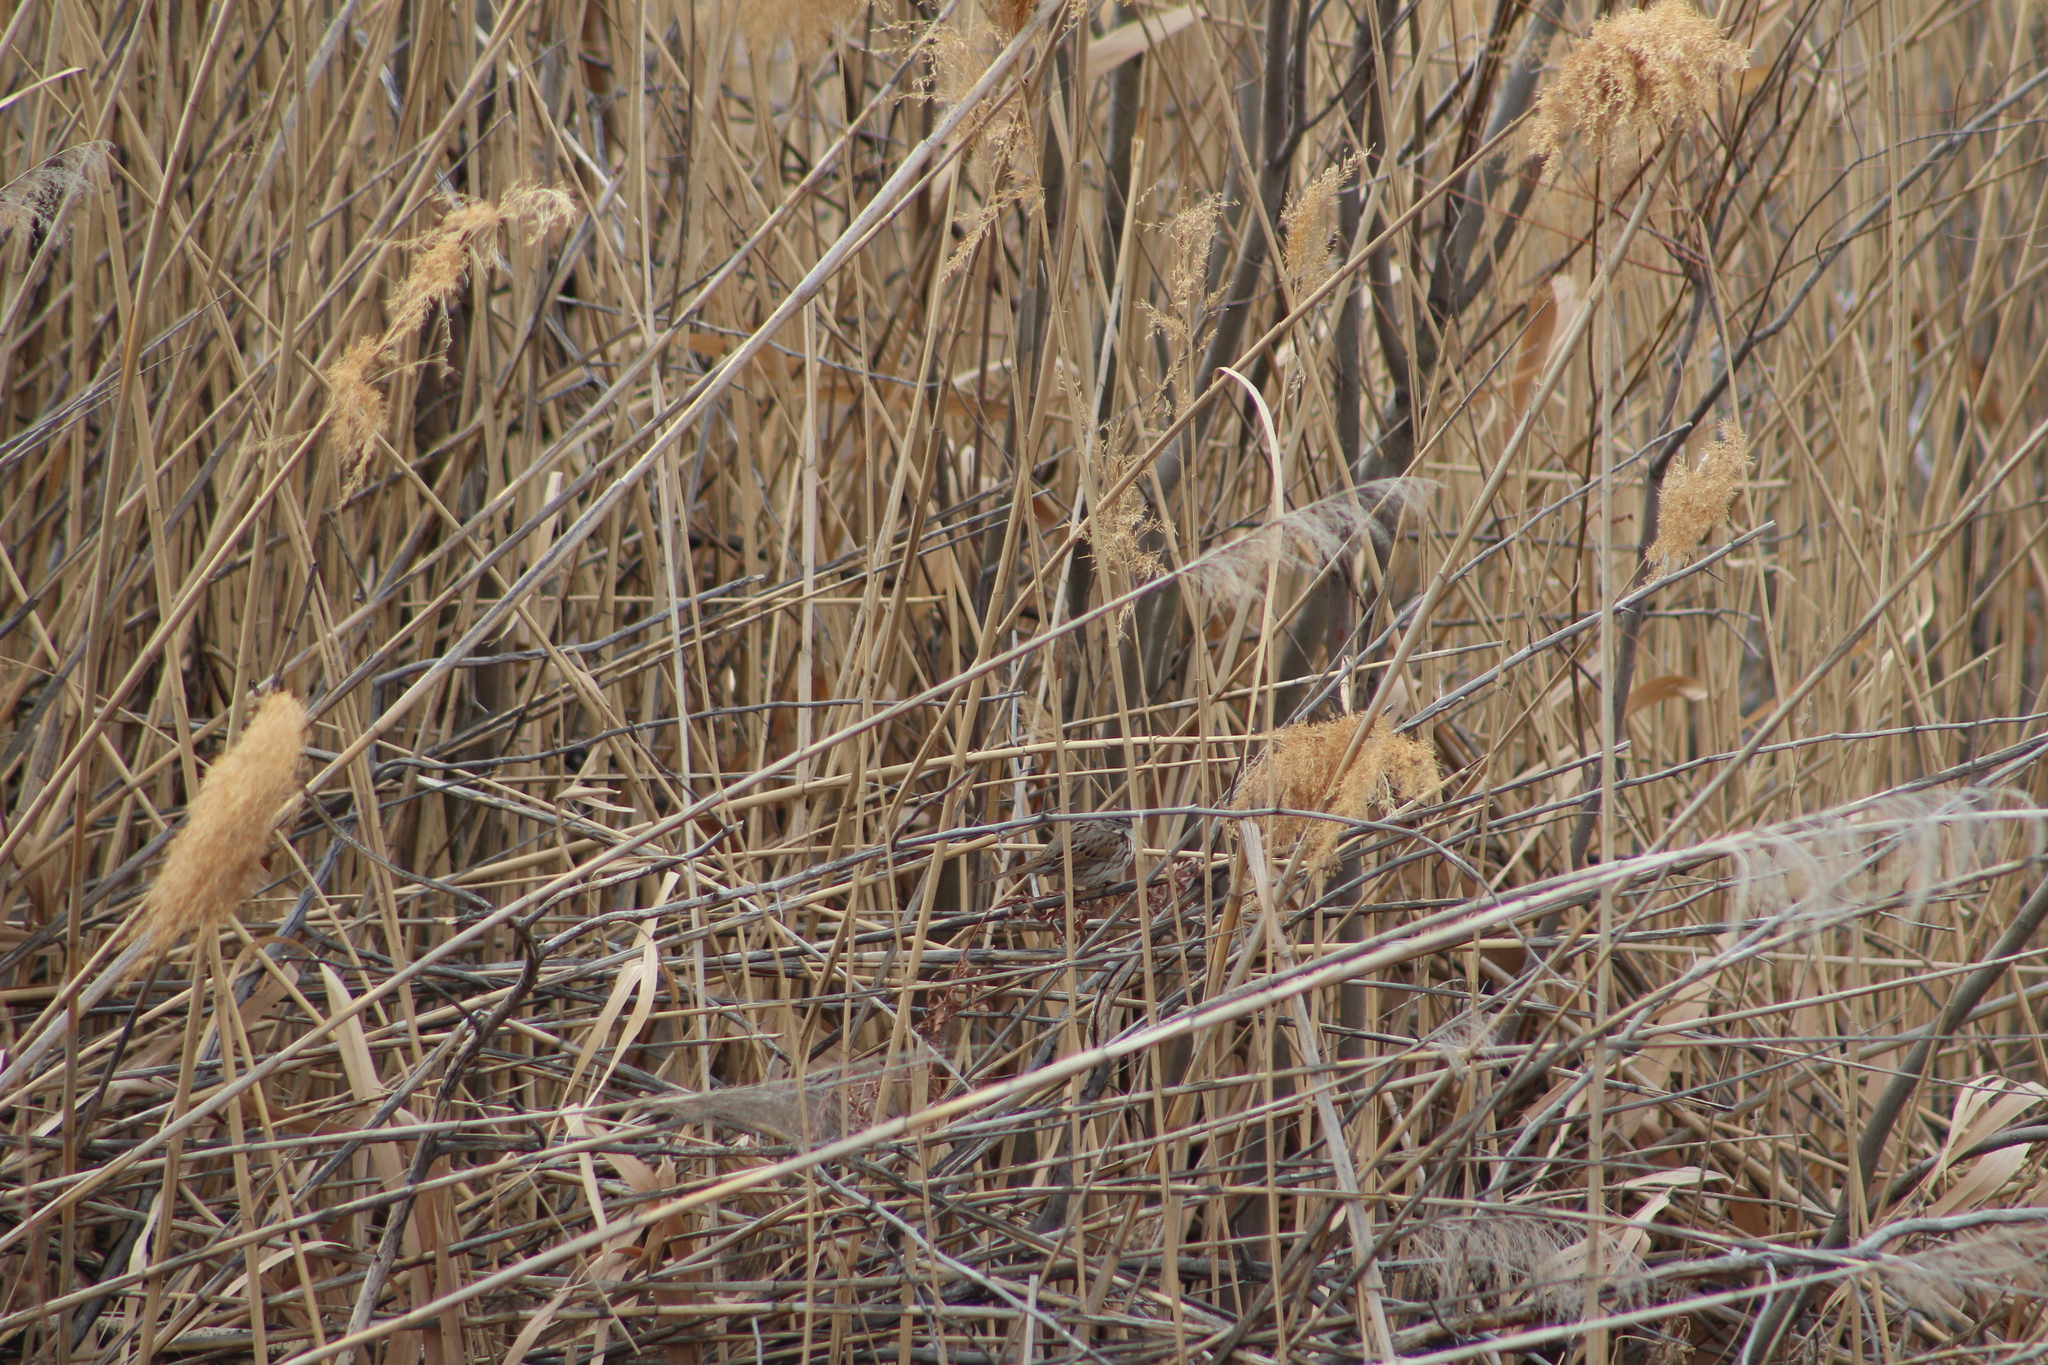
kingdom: Animalia
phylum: Chordata
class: Aves
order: Passeriformes
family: Passerellidae
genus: Melospiza
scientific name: Melospiza melodia
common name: Song sparrow
